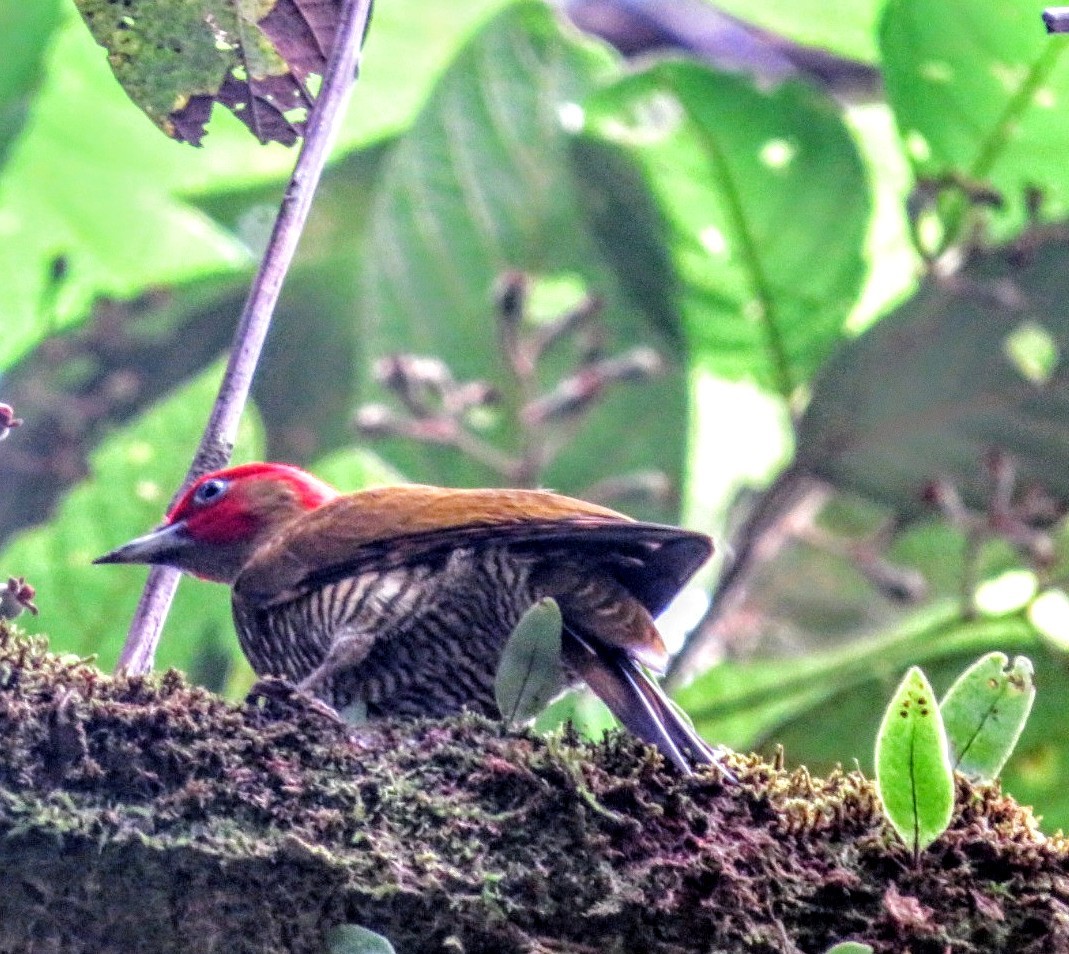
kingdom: Animalia
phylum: Chordata
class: Aves
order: Piciformes
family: Picidae
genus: Piculus
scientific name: Piculus simplex
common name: Rufous-winged woodpecker
